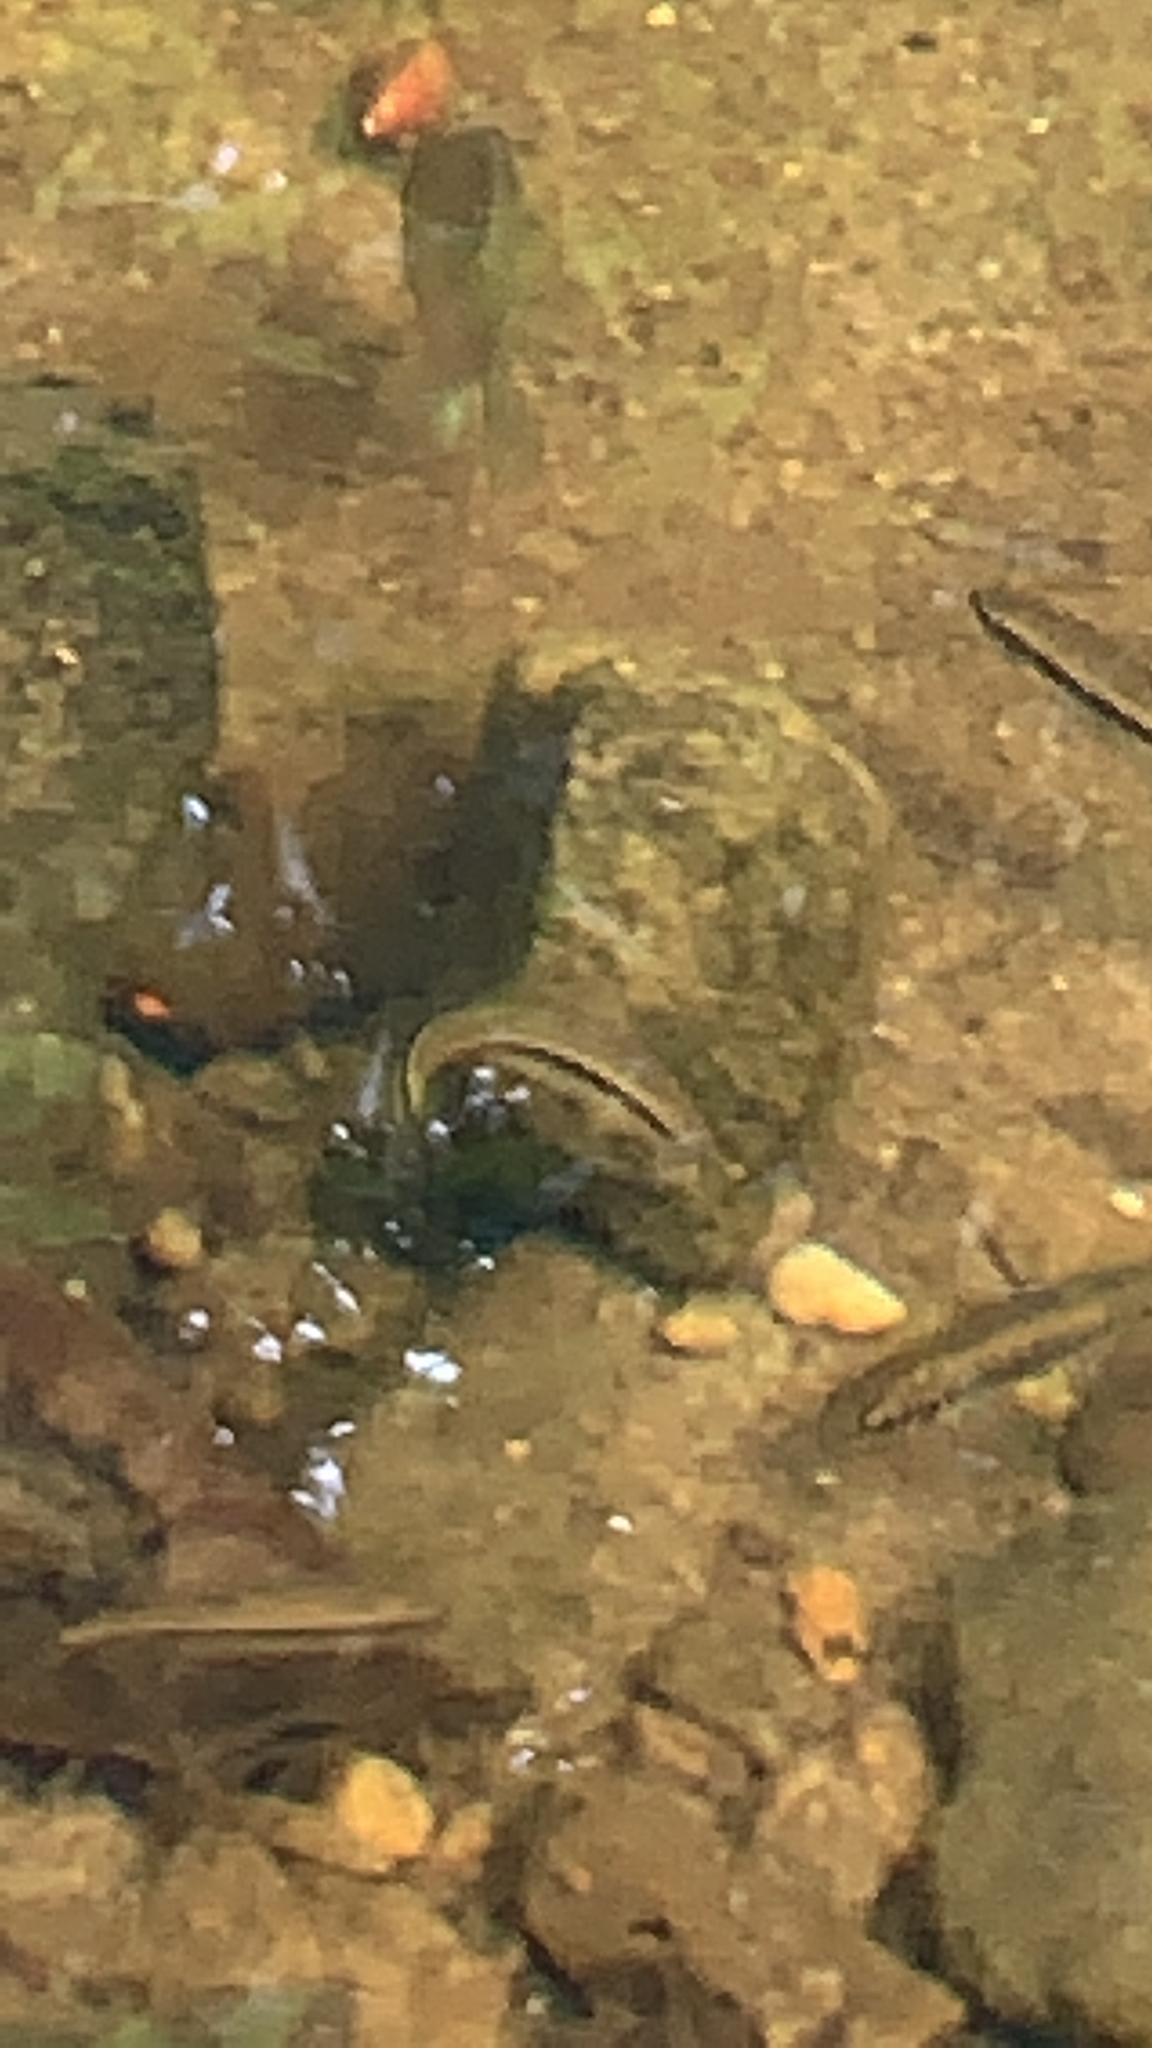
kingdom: Animalia
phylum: Chordata
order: Cypriniformes
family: Cyprinidae
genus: Rhinichthys
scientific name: Rhinichthys atratulus
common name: Eastern blacknose dace
